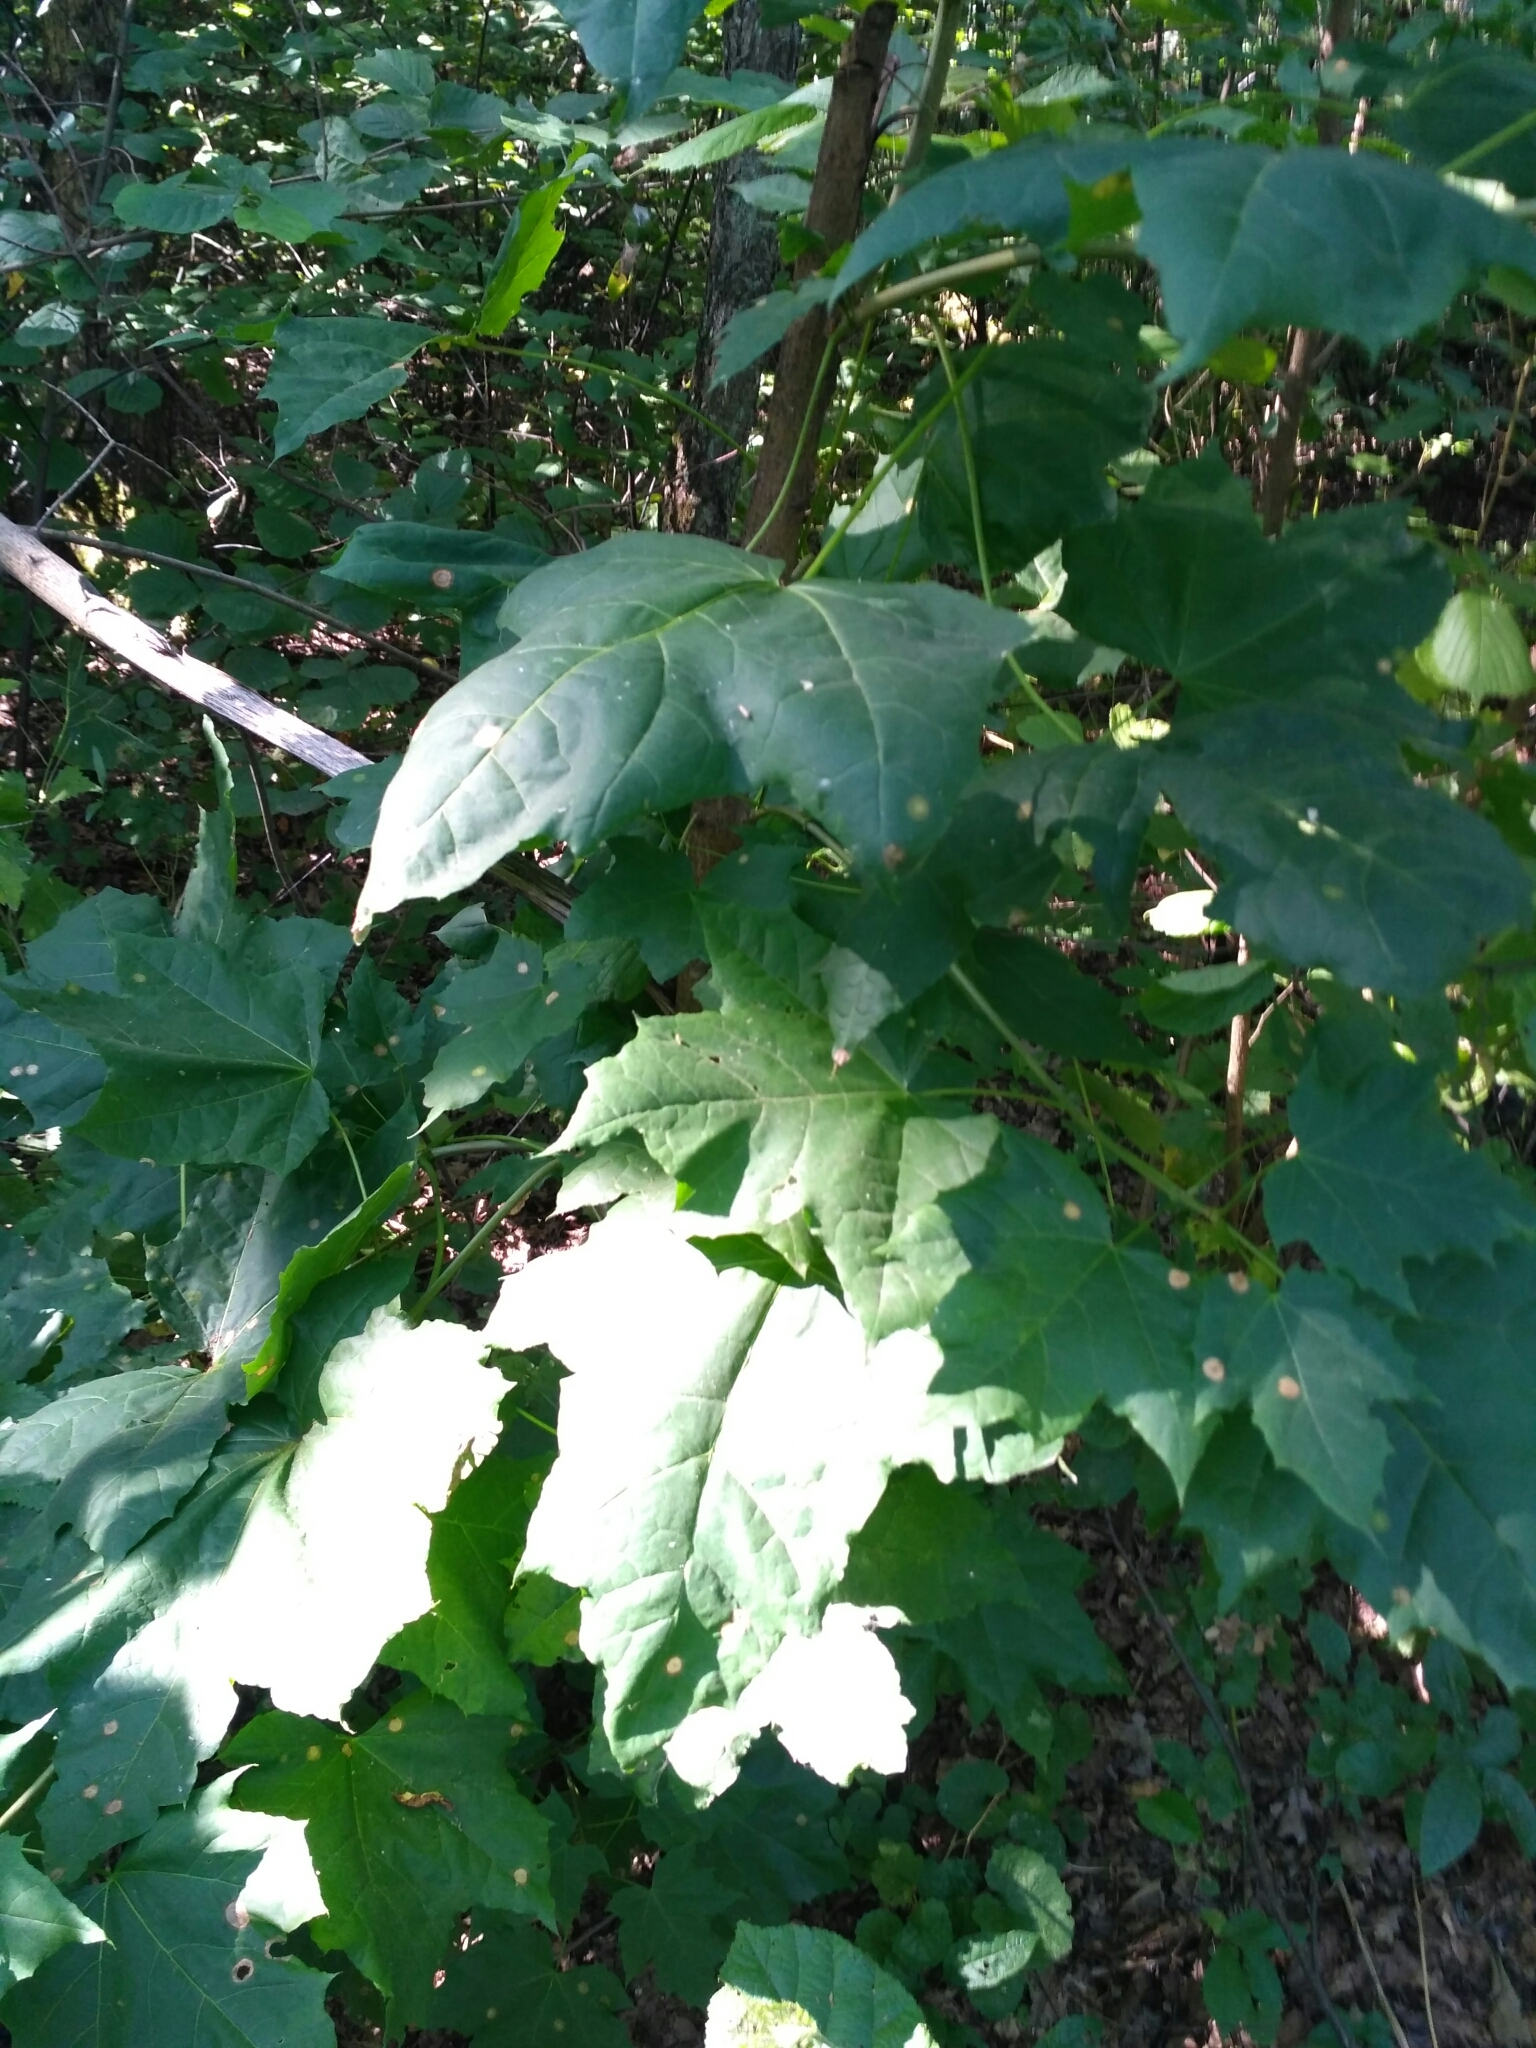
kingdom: Plantae
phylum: Tracheophyta
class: Magnoliopsida
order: Sapindales
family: Sapindaceae
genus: Acer
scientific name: Acer platanoides
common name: Norway maple
